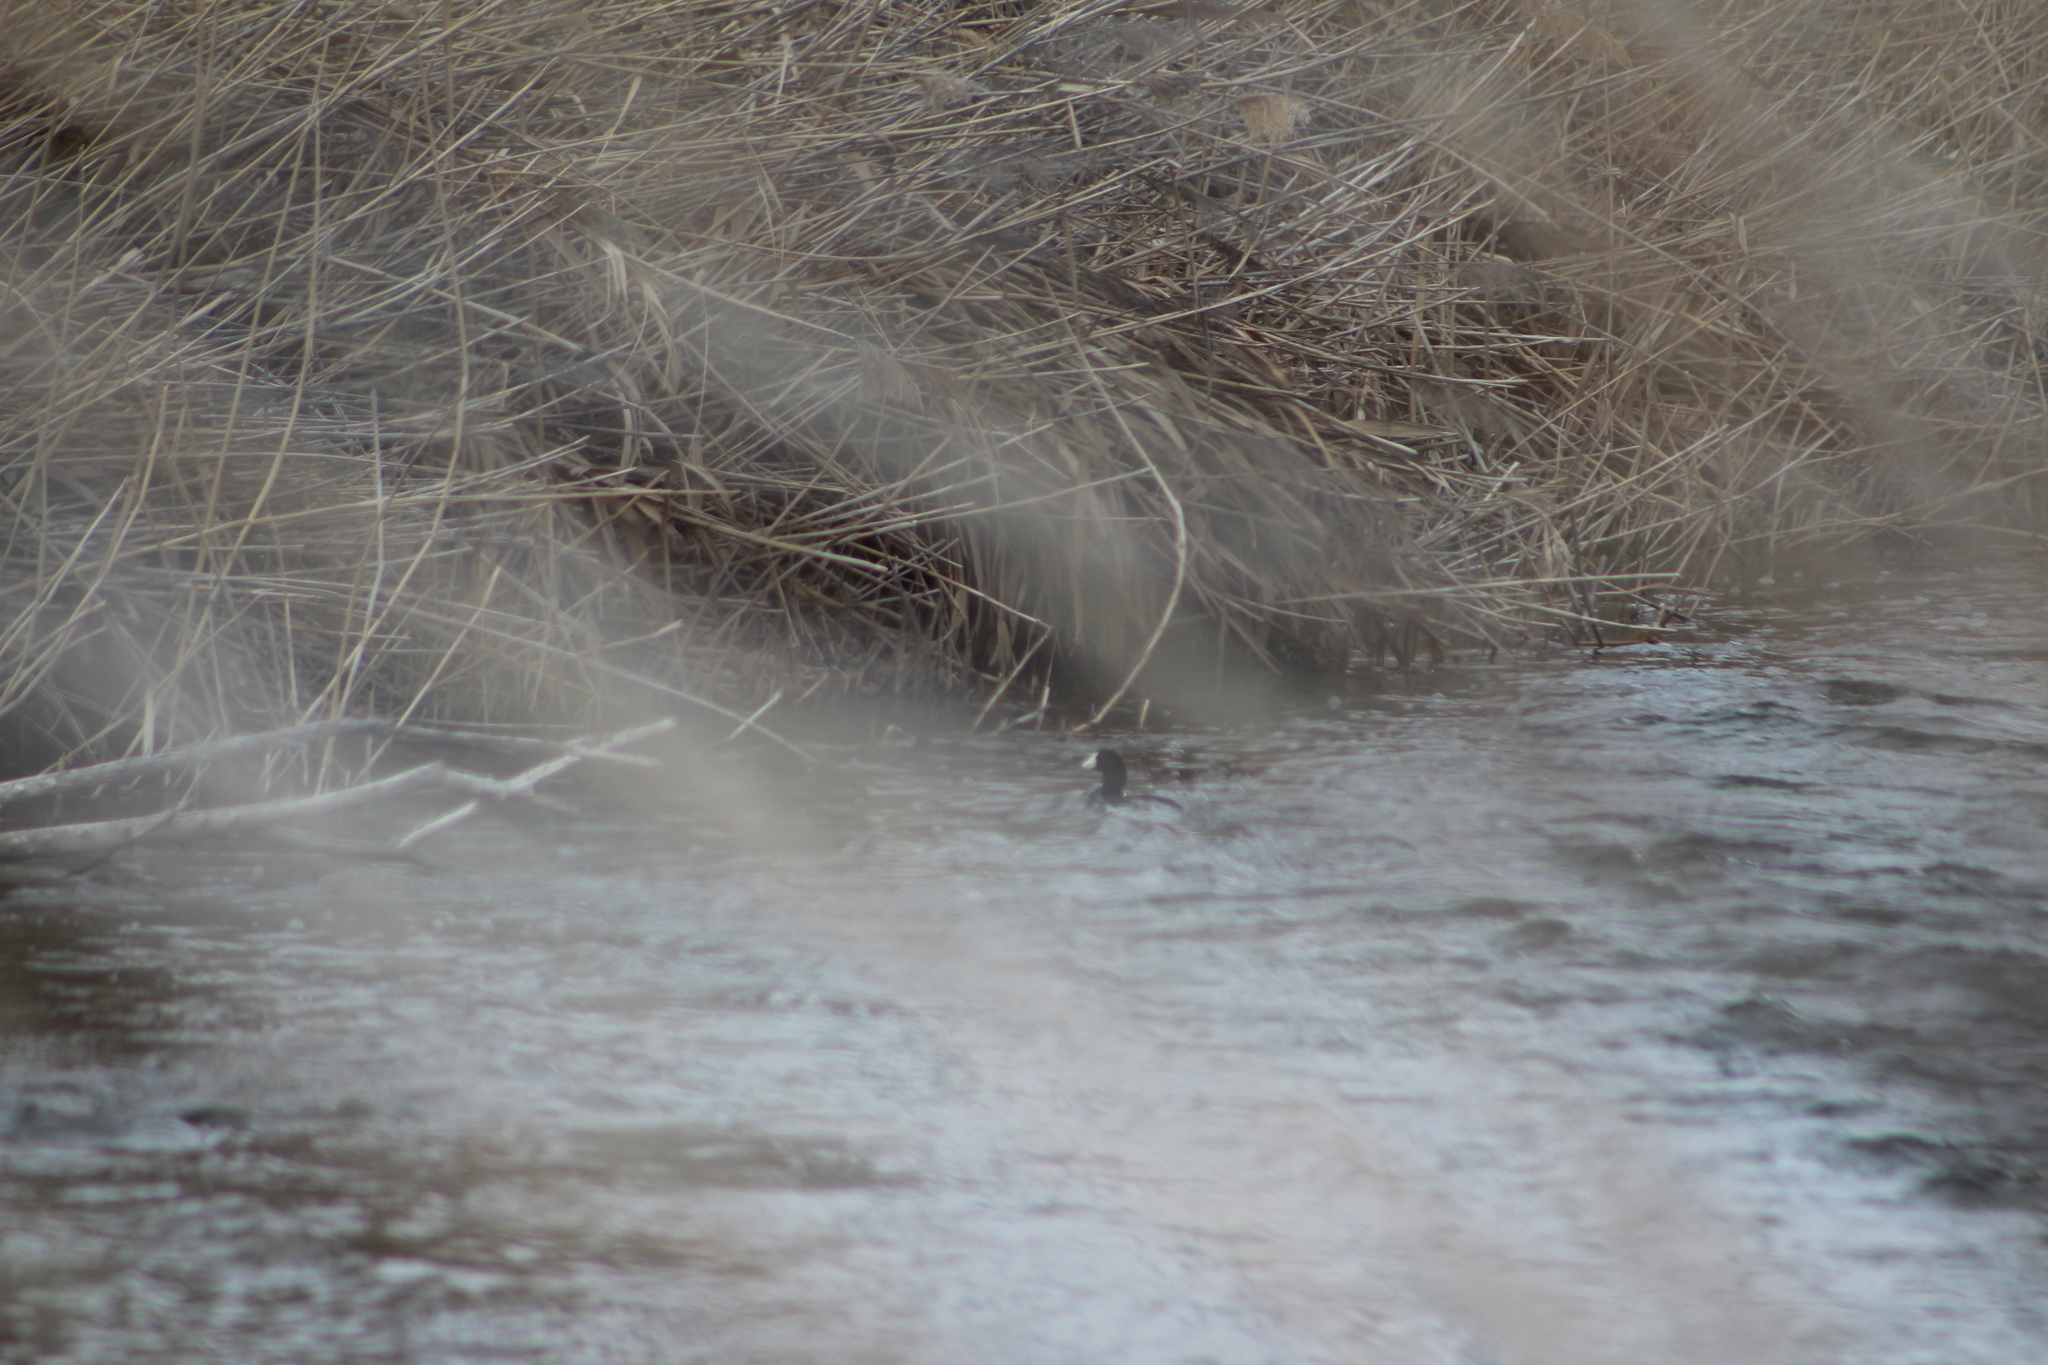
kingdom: Animalia
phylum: Chordata
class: Aves
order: Gruiformes
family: Rallidae
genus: Fulica
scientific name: Fulica americana
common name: American coot
